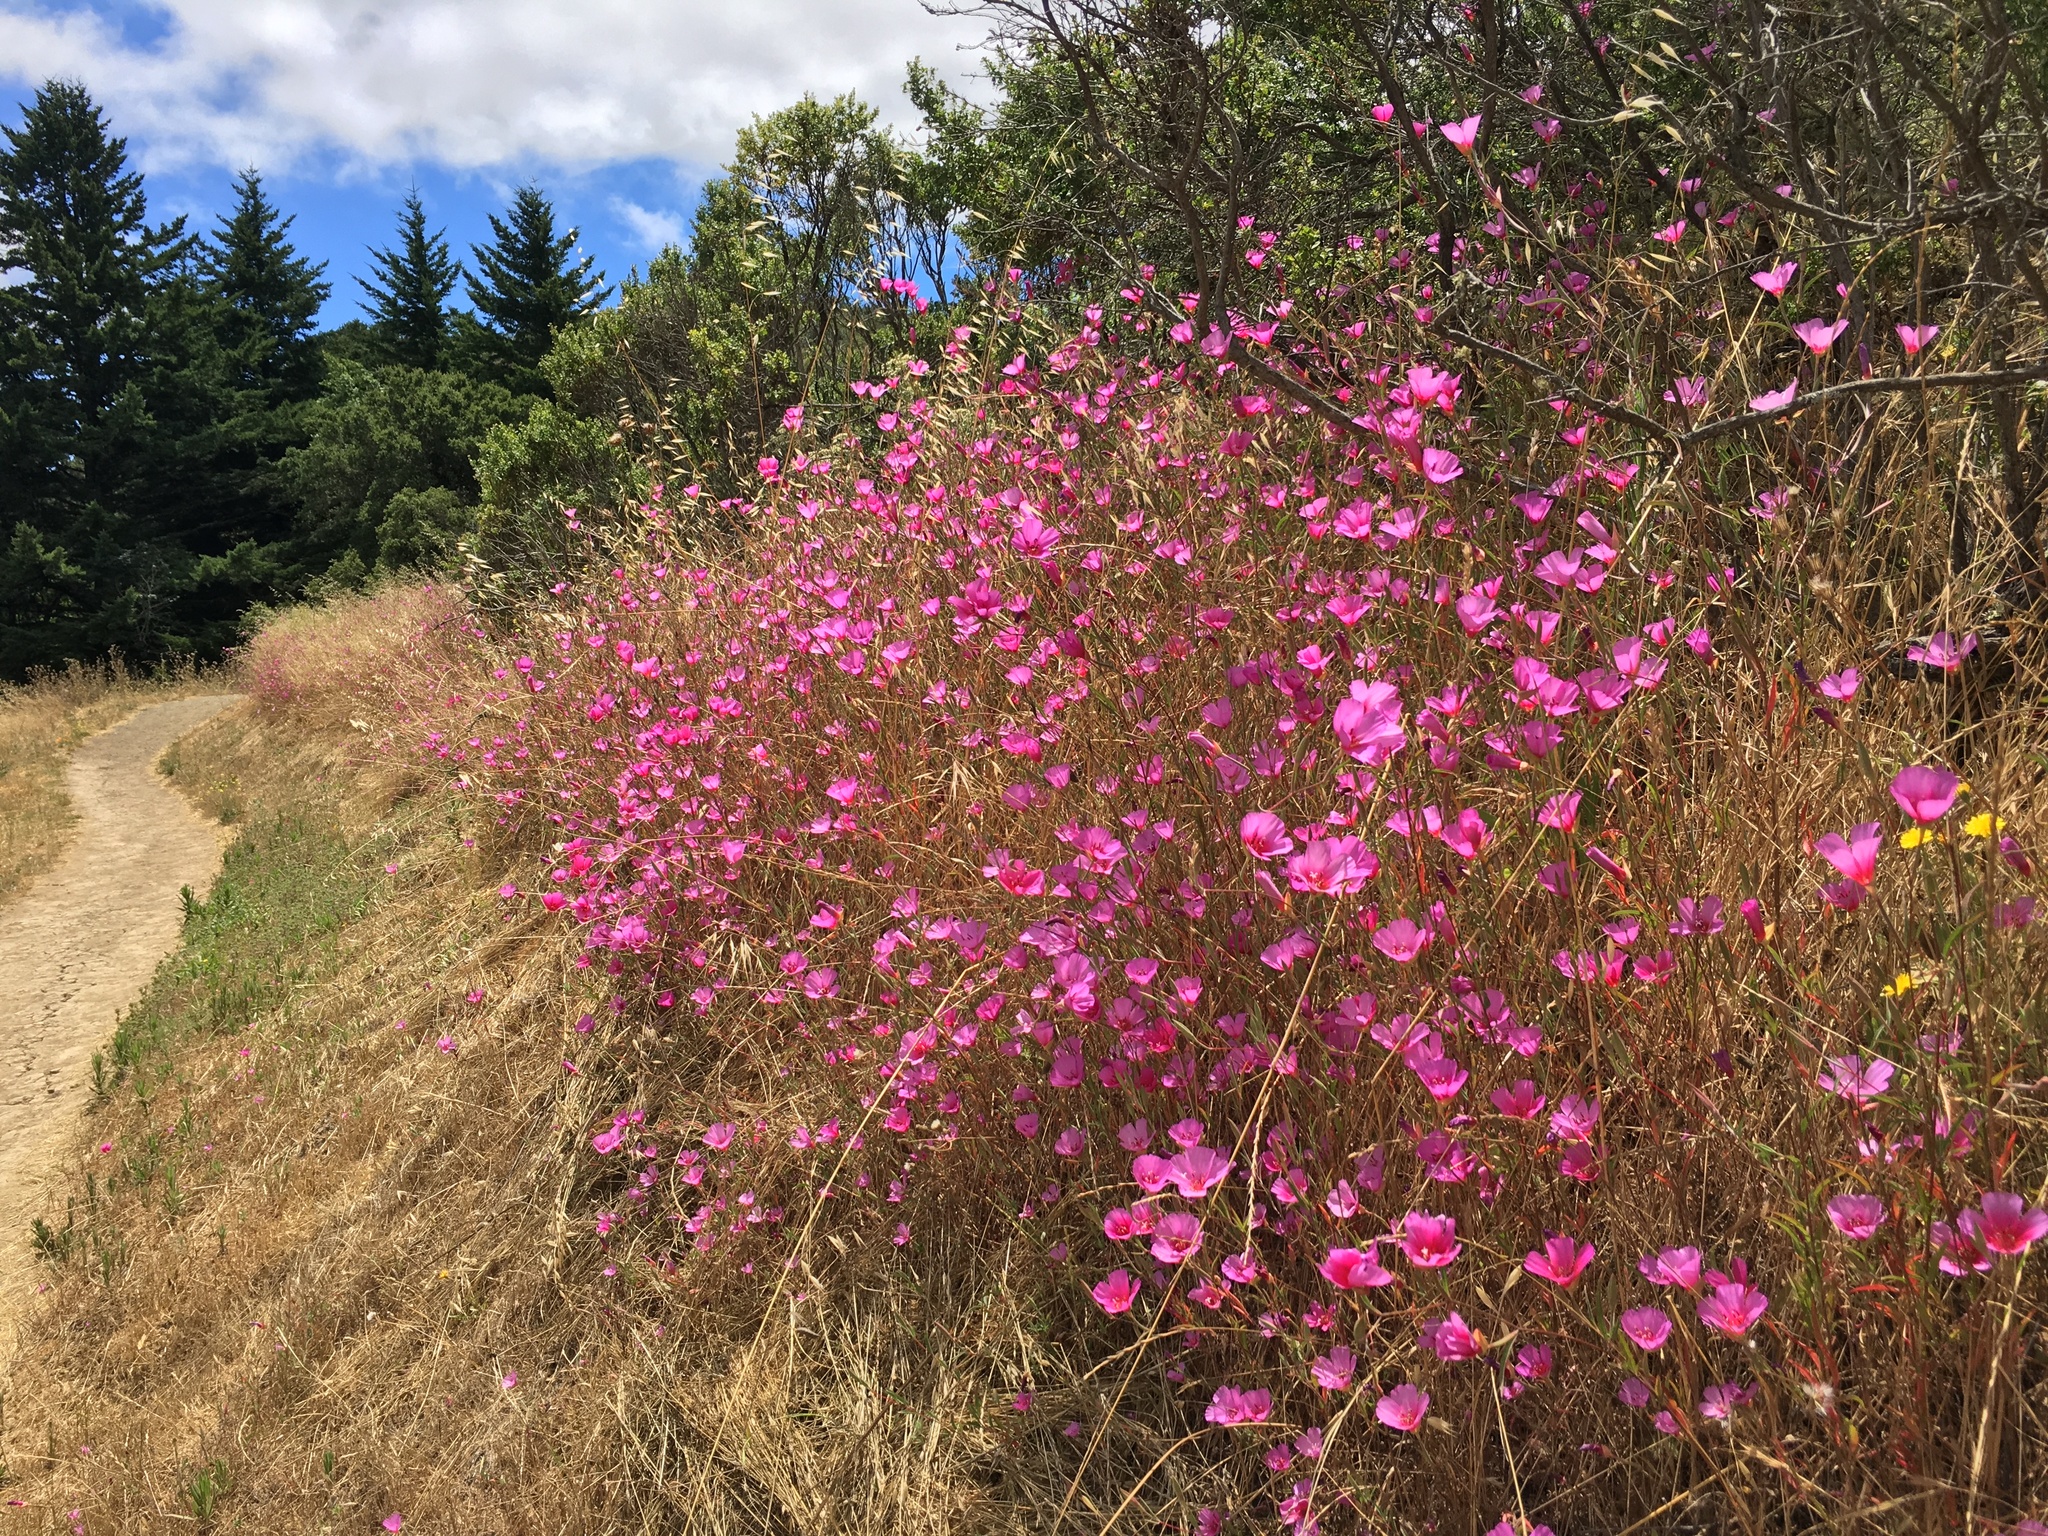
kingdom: Plantae
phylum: Tracheophyta
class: Magnoliopsida
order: Myrtales
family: Onagraceae
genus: Clarkia
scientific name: Clarkia rubicunda
